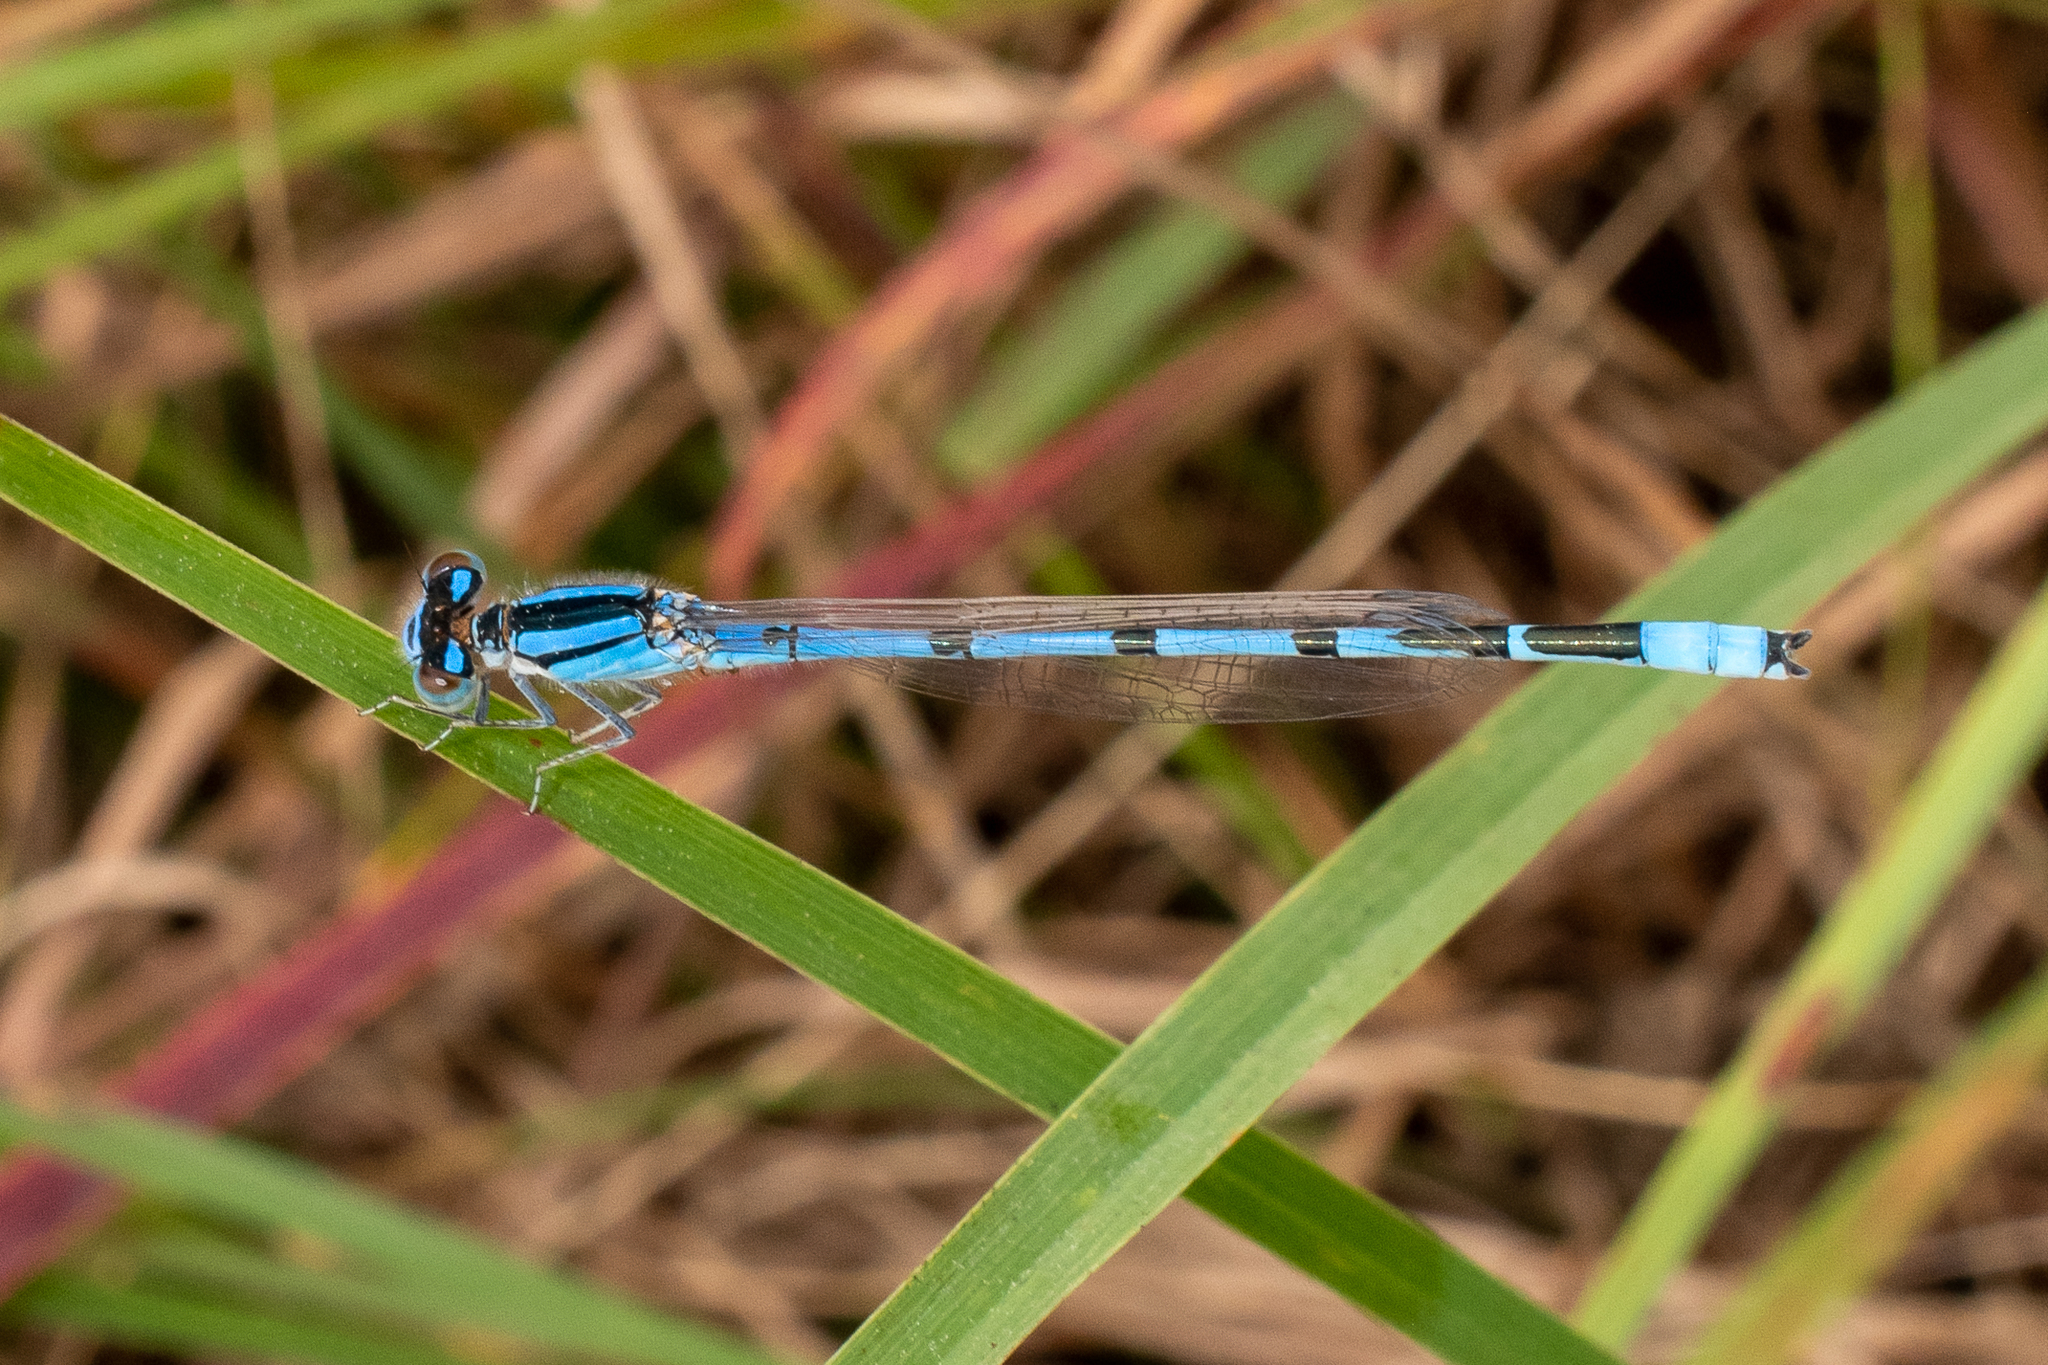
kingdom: Animalia
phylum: Arthropoda
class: Insecta
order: Odonata
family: Coenagrionidae
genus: Enallagma
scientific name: Enallagma civile
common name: Damselfly
